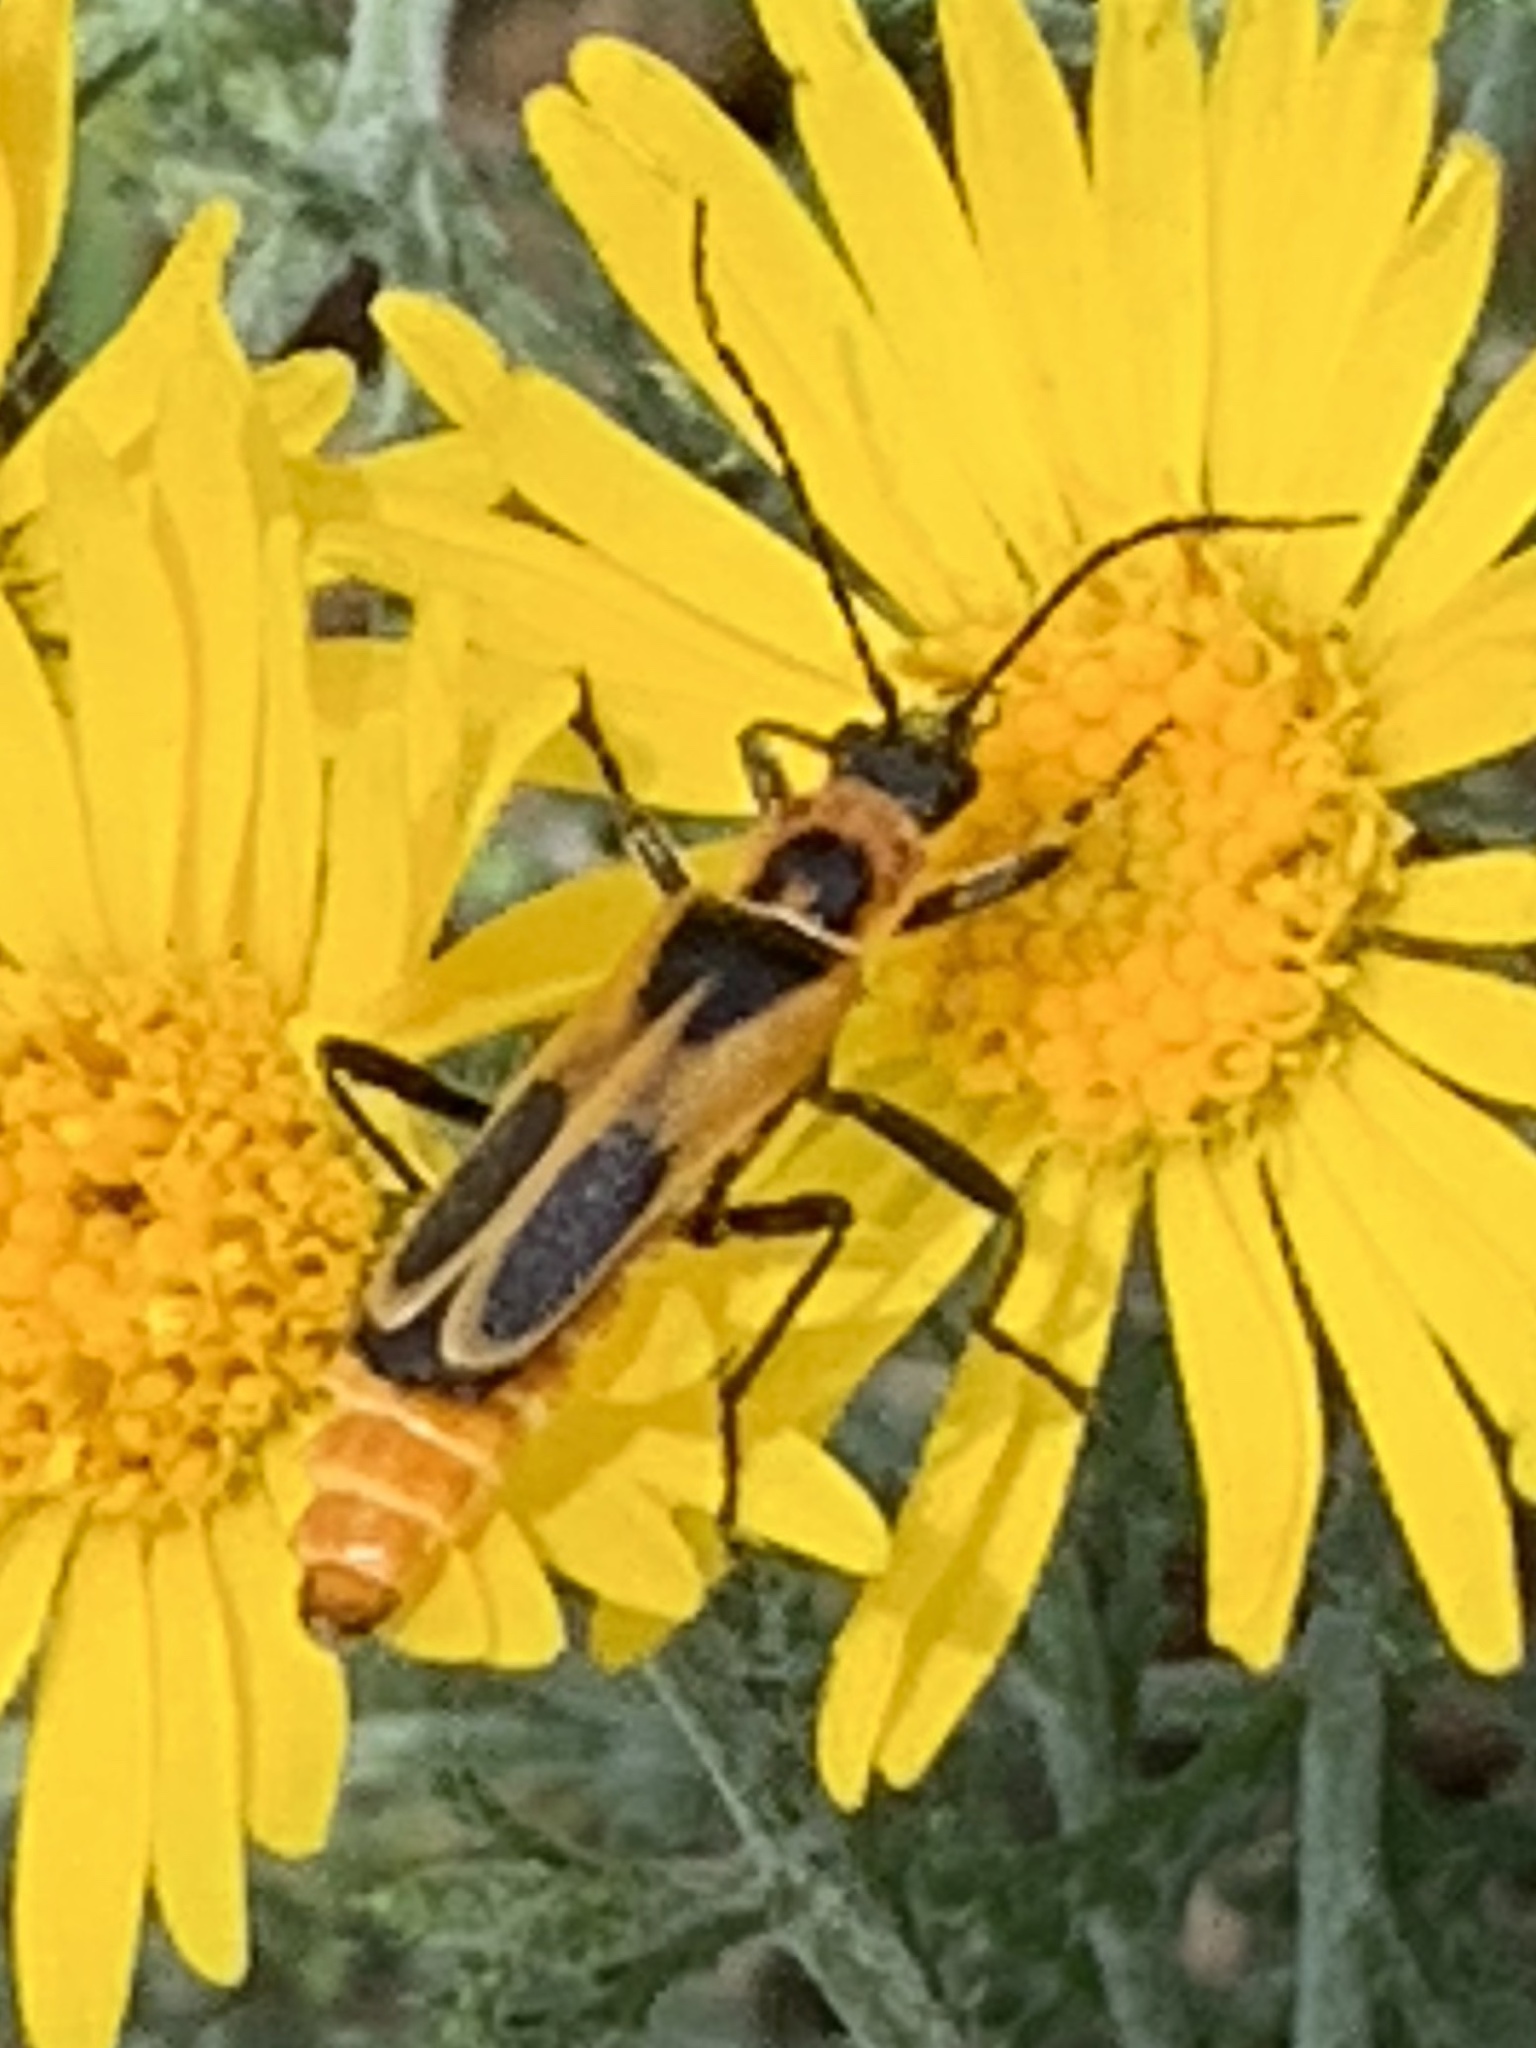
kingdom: Animalia
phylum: Arthropoda
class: Insecta
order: Coleoptera
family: Cantharidae
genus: Chauliognathus
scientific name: Chauliognathus scutellaris
